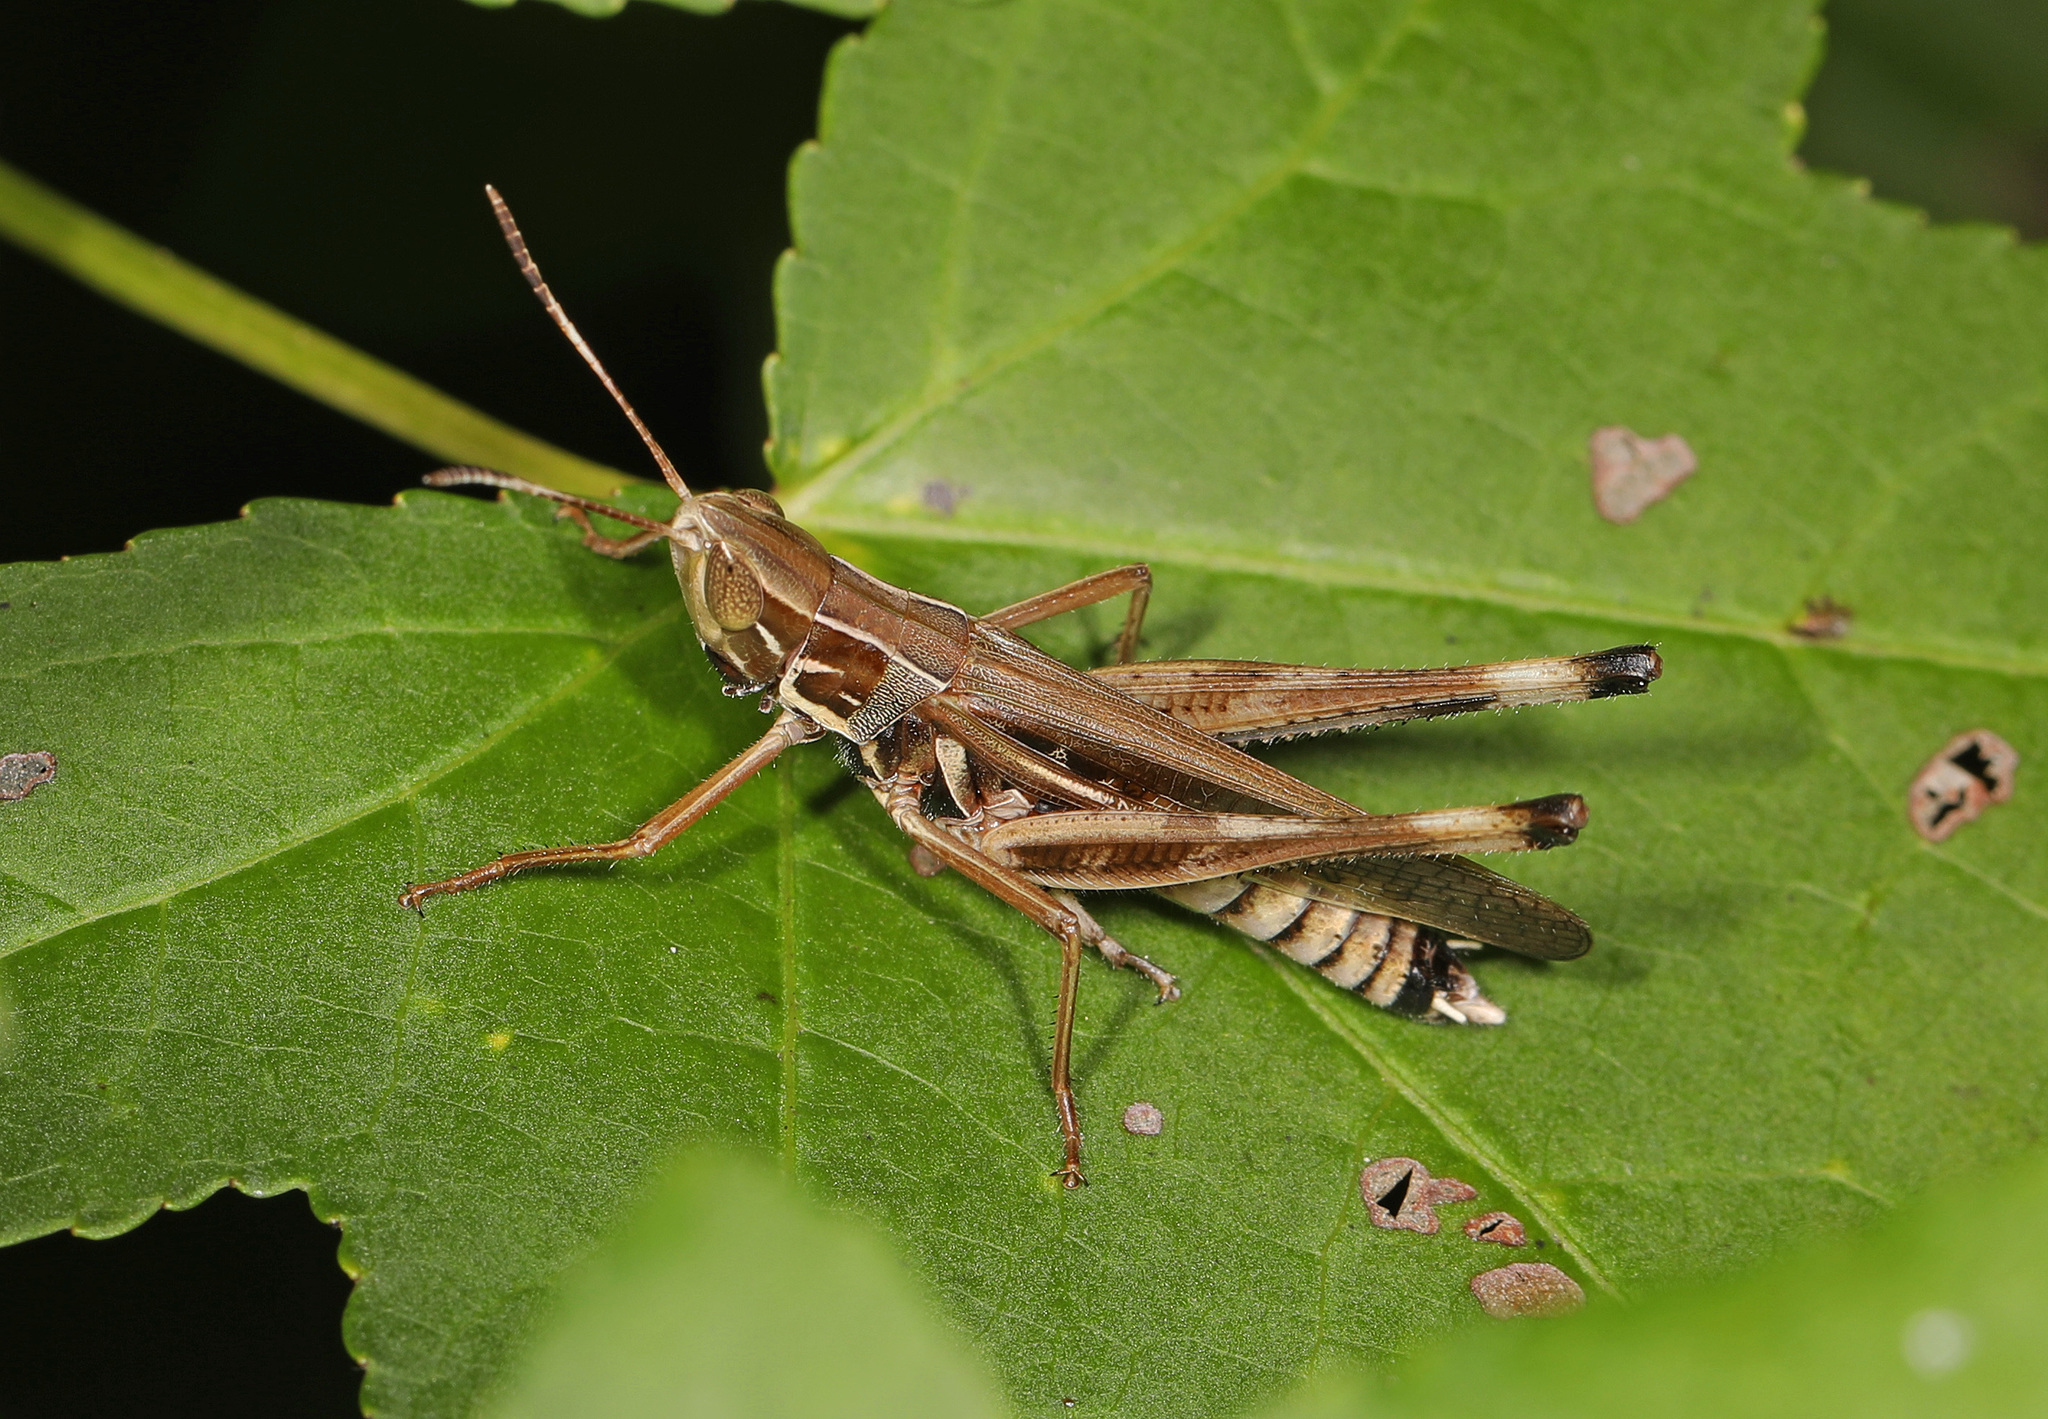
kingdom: Animalia
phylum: Arthropoda
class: Insecta
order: Orthoptera
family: Acrididae
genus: Syrbula
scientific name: Syrbula admirabilis
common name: Handsome grasshopper
